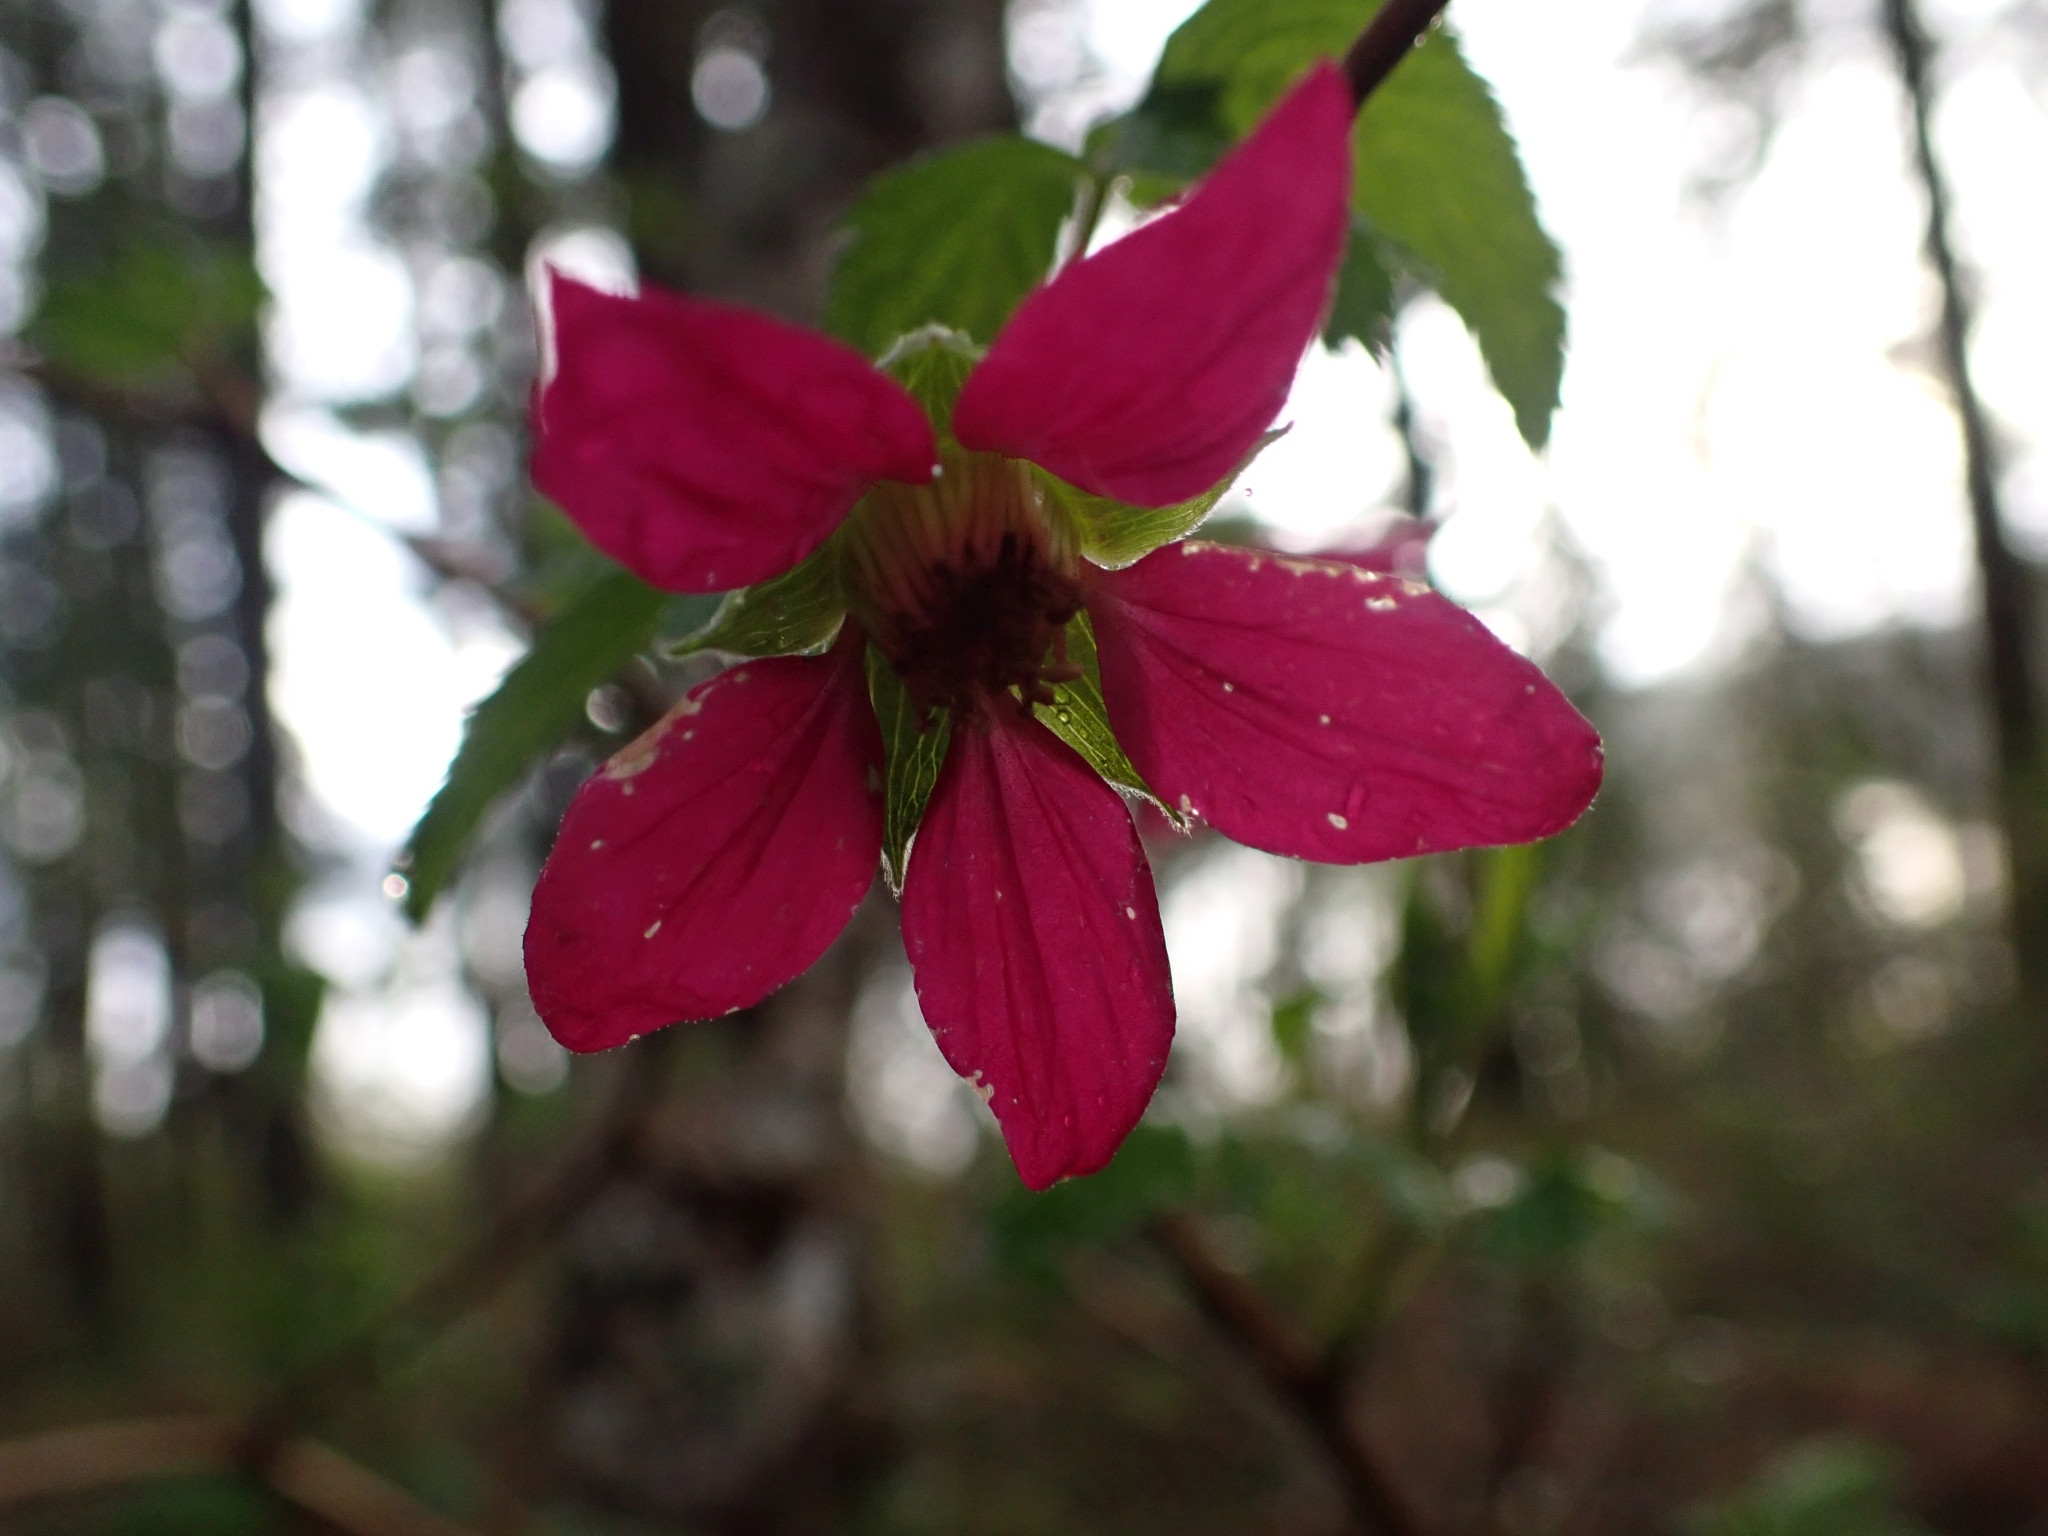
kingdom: Plantae
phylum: Tracheophyta
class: Magnoliopsida
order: Rosales
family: Rosaceae
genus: Rubus
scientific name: Rubus spectabilis
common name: Salmonberry
